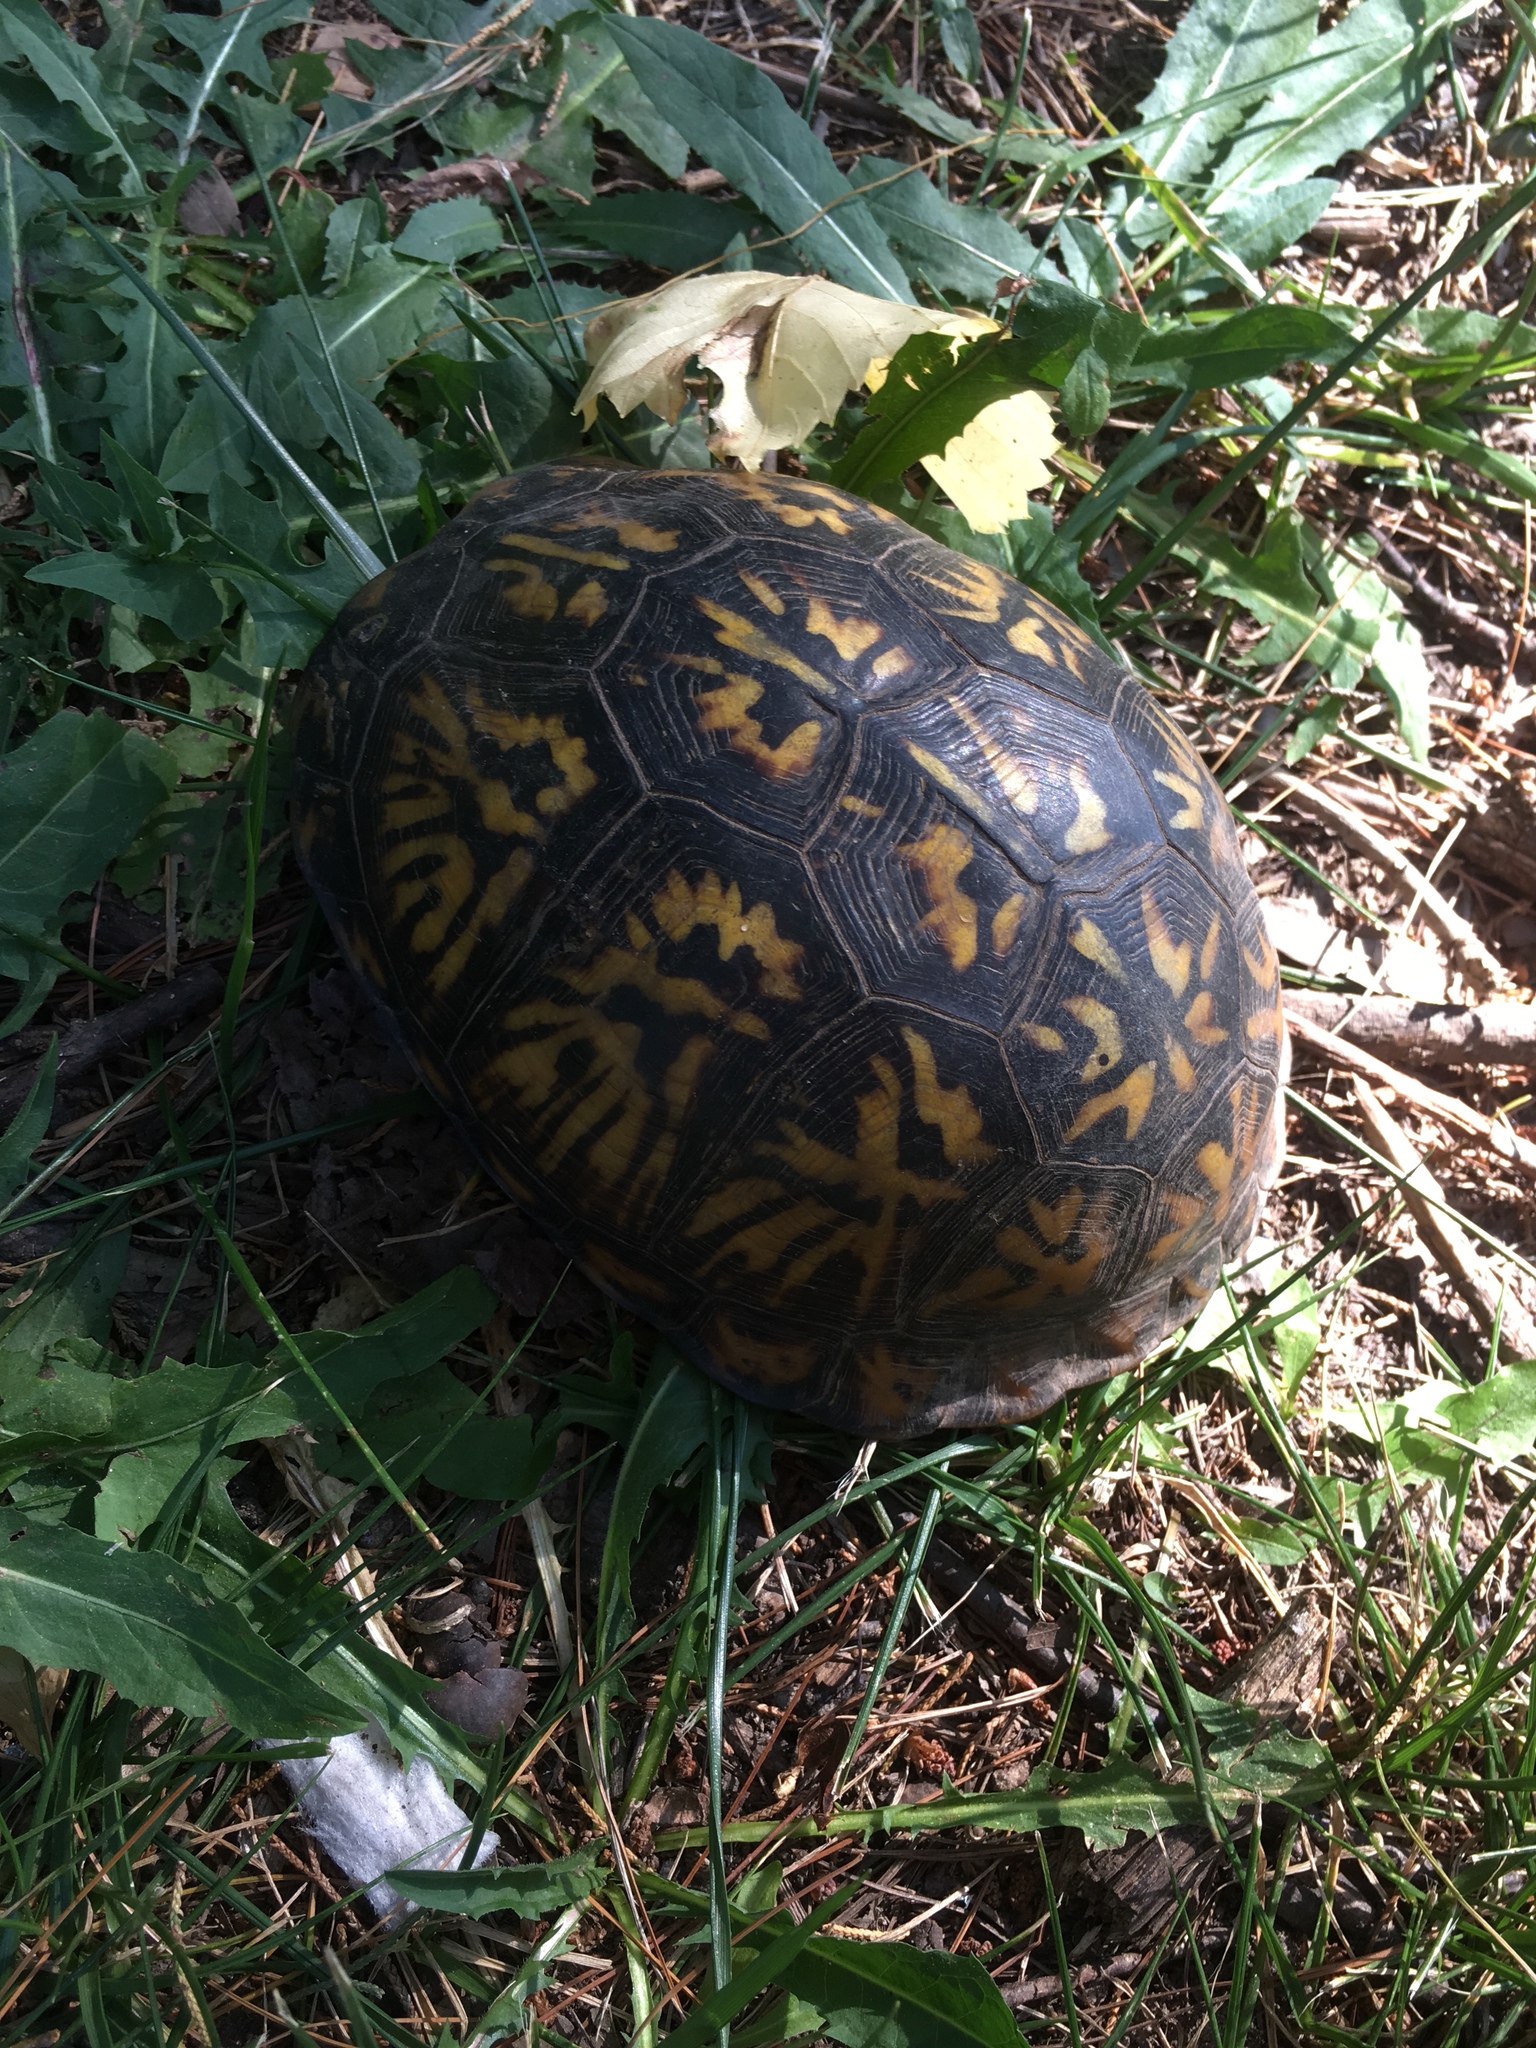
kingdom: Animalia
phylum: Chordata
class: Testudines
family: Emydidae
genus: Terrapene
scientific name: Terrapene carolina
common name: Common box turtle
